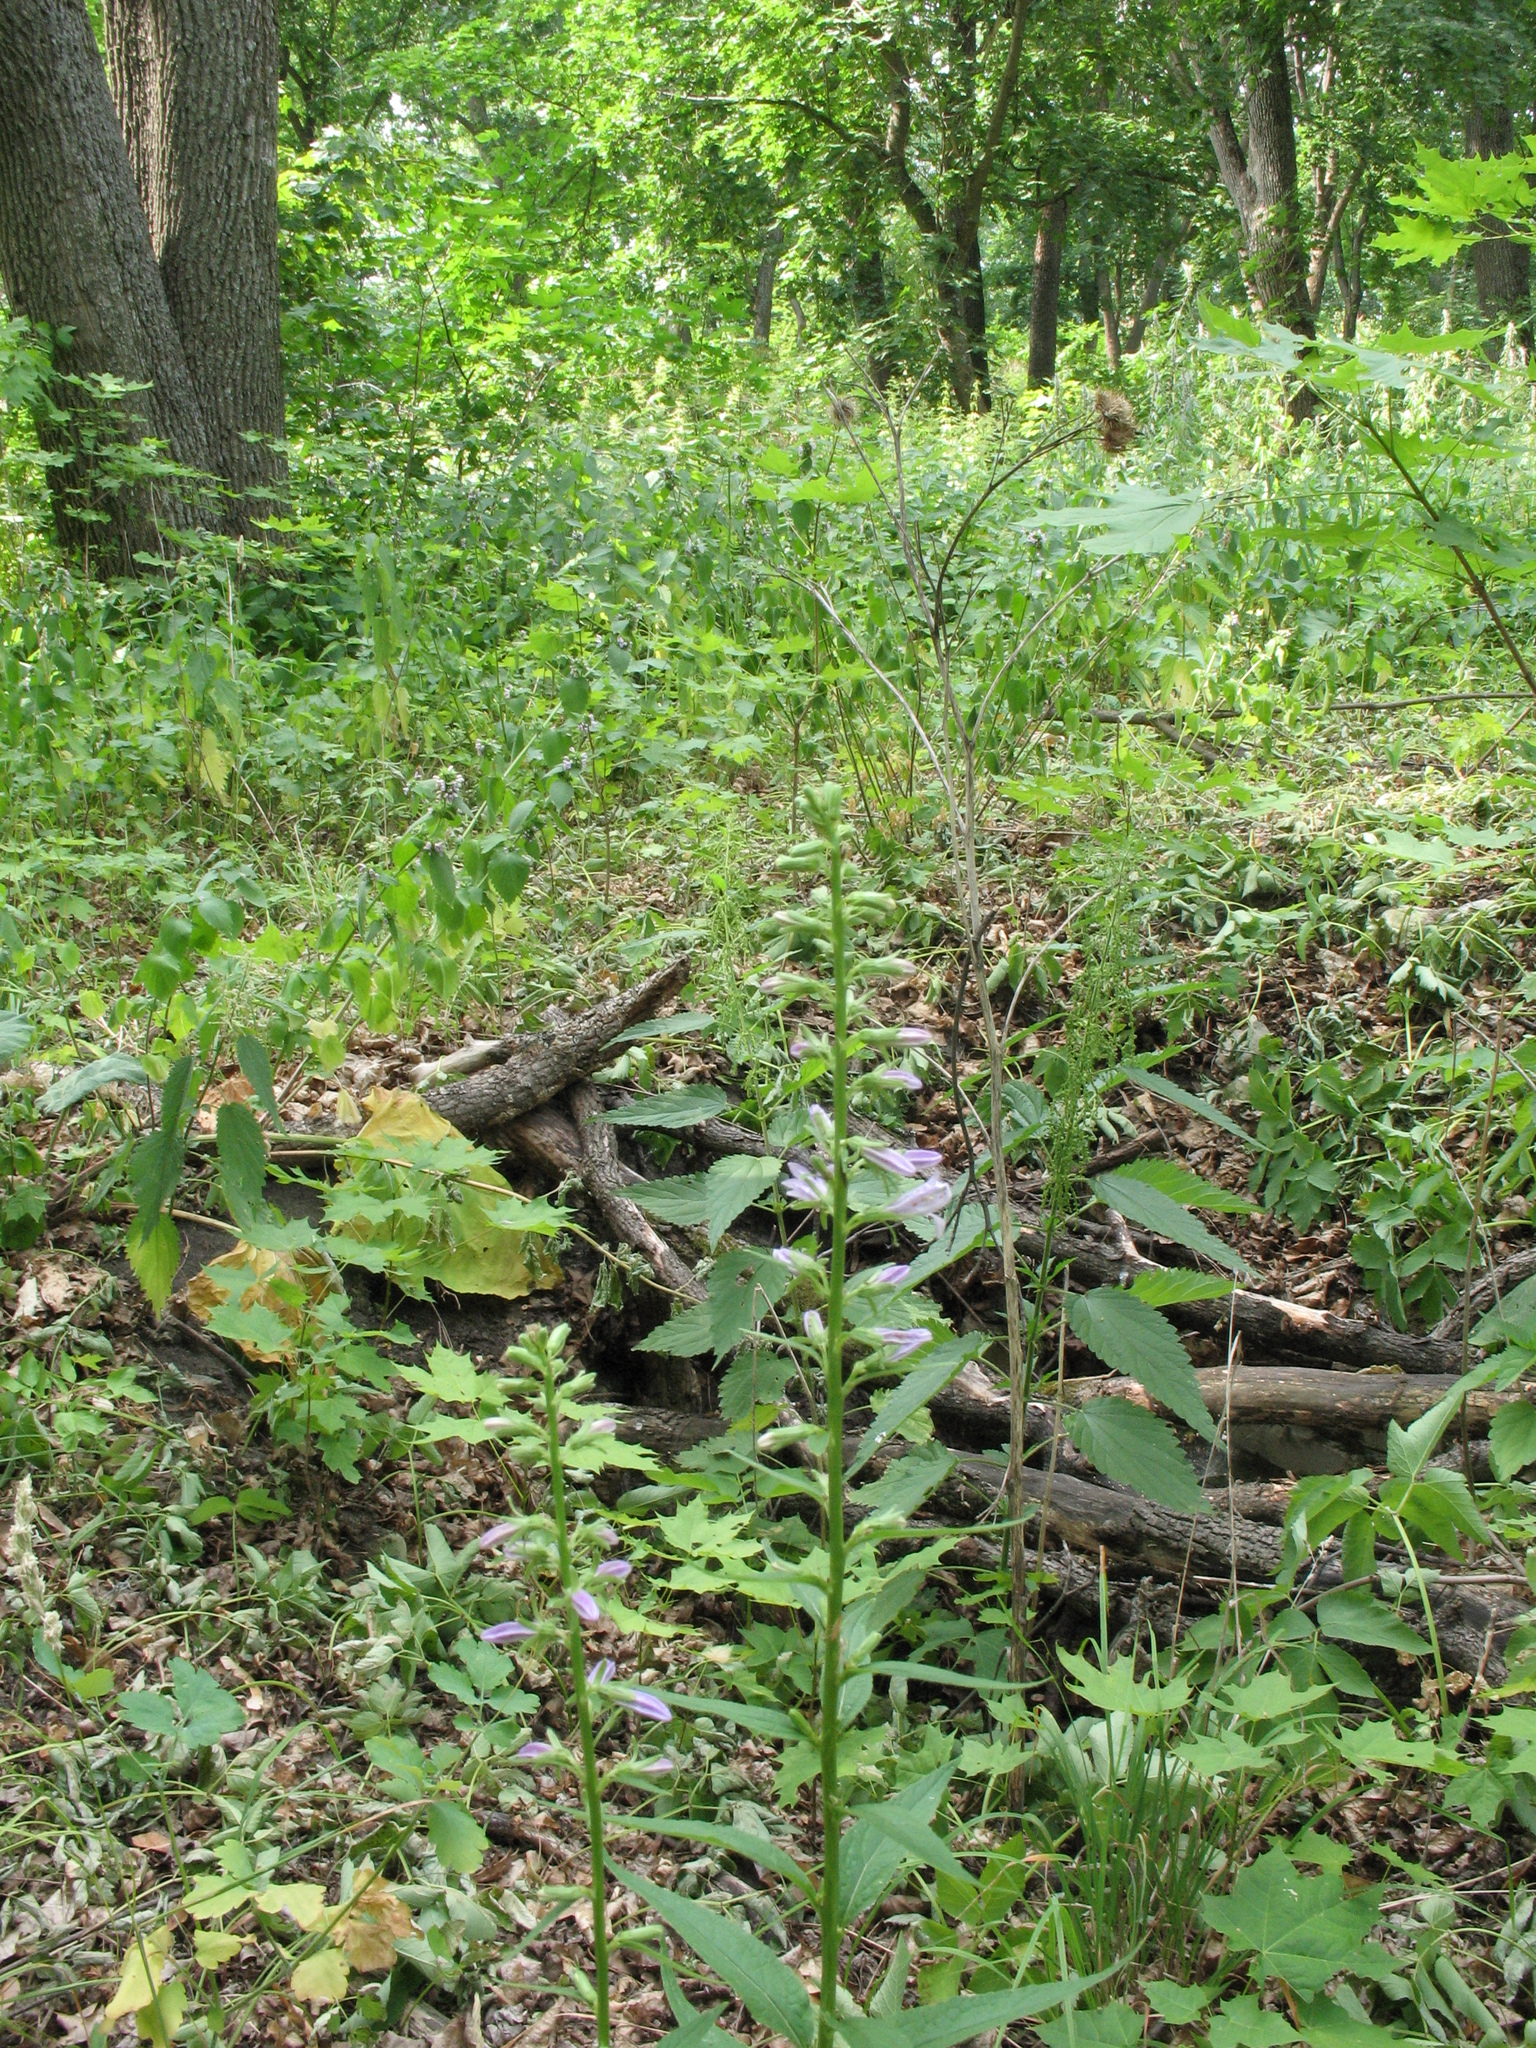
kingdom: Plantae
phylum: Tracheophyta
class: Magnoliopsida
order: Asterales
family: Campanulaceae
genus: Campanula
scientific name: Campanula rapunculoides
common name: Creeping bellflower
